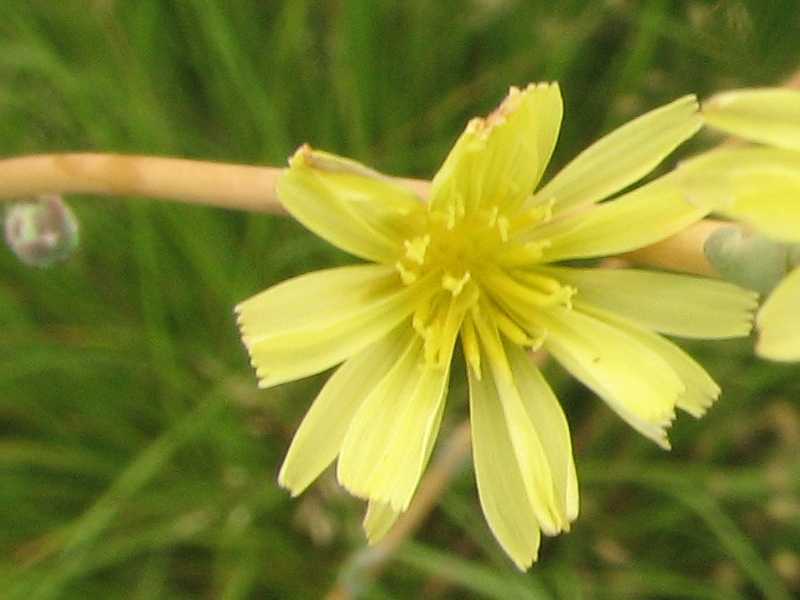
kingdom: Plantae
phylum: Tracheophyta
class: Magnoliopsida
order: Asterales
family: Asteraceae
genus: Lactuca
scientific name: Lactuca serriola
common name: Prickly lettuce
